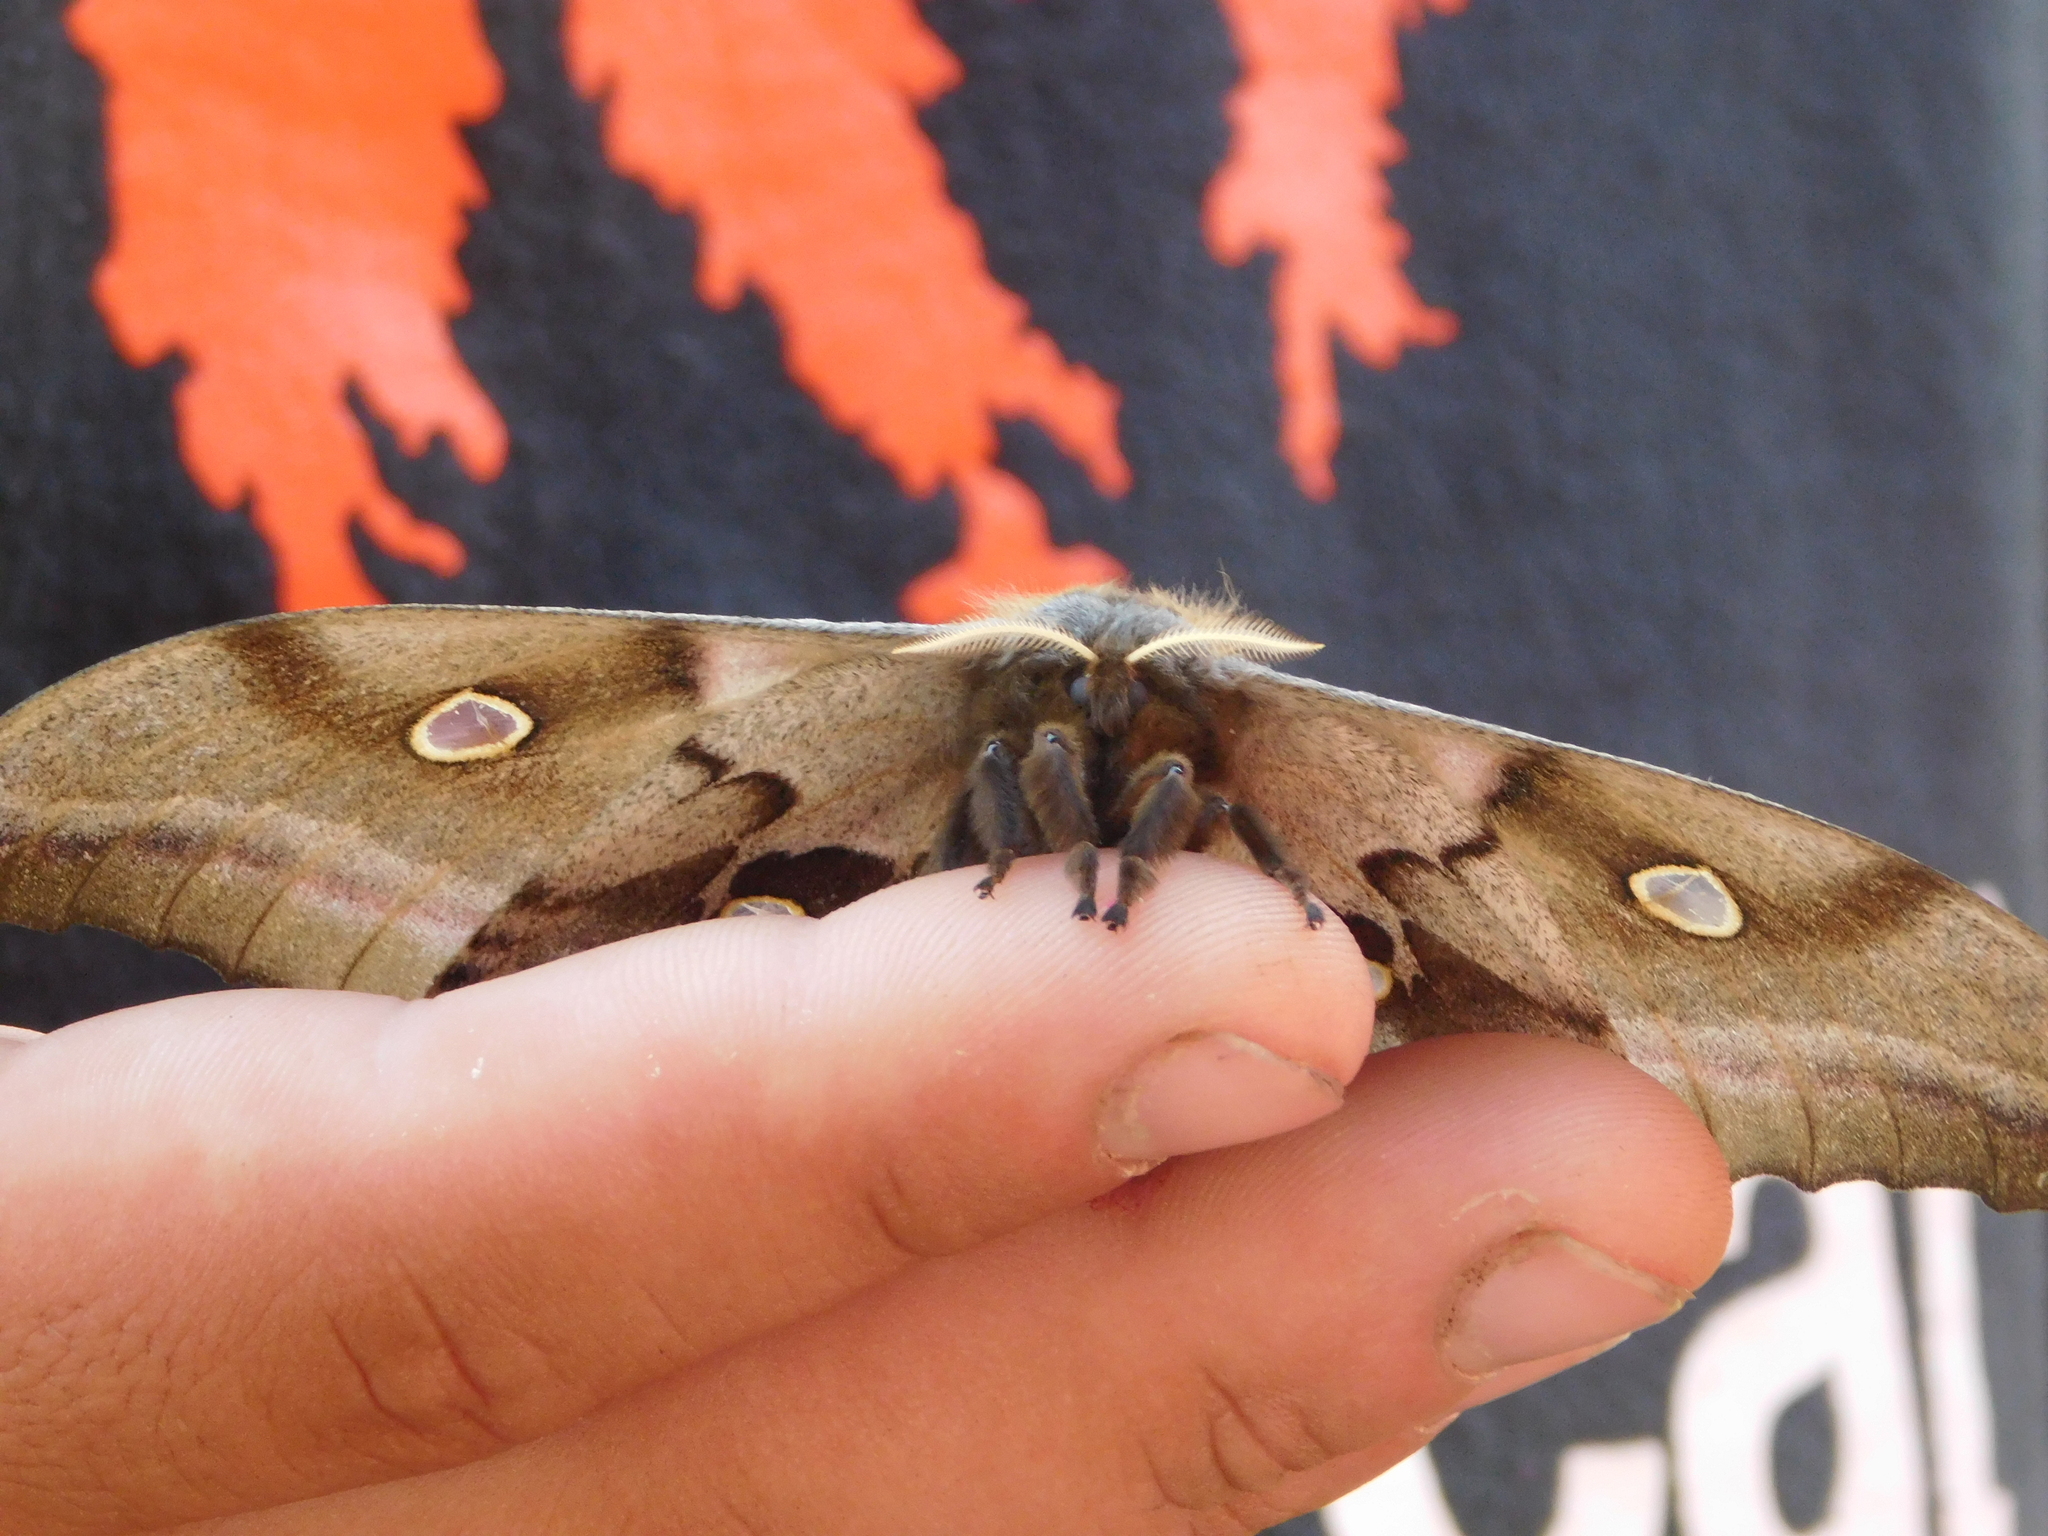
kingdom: Animalia
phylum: Arthropoda
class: Insecta
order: Lepidoptera
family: Saturniidae
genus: Antheraea
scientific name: Antheraea polyphemus
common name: Polyphemus moth
